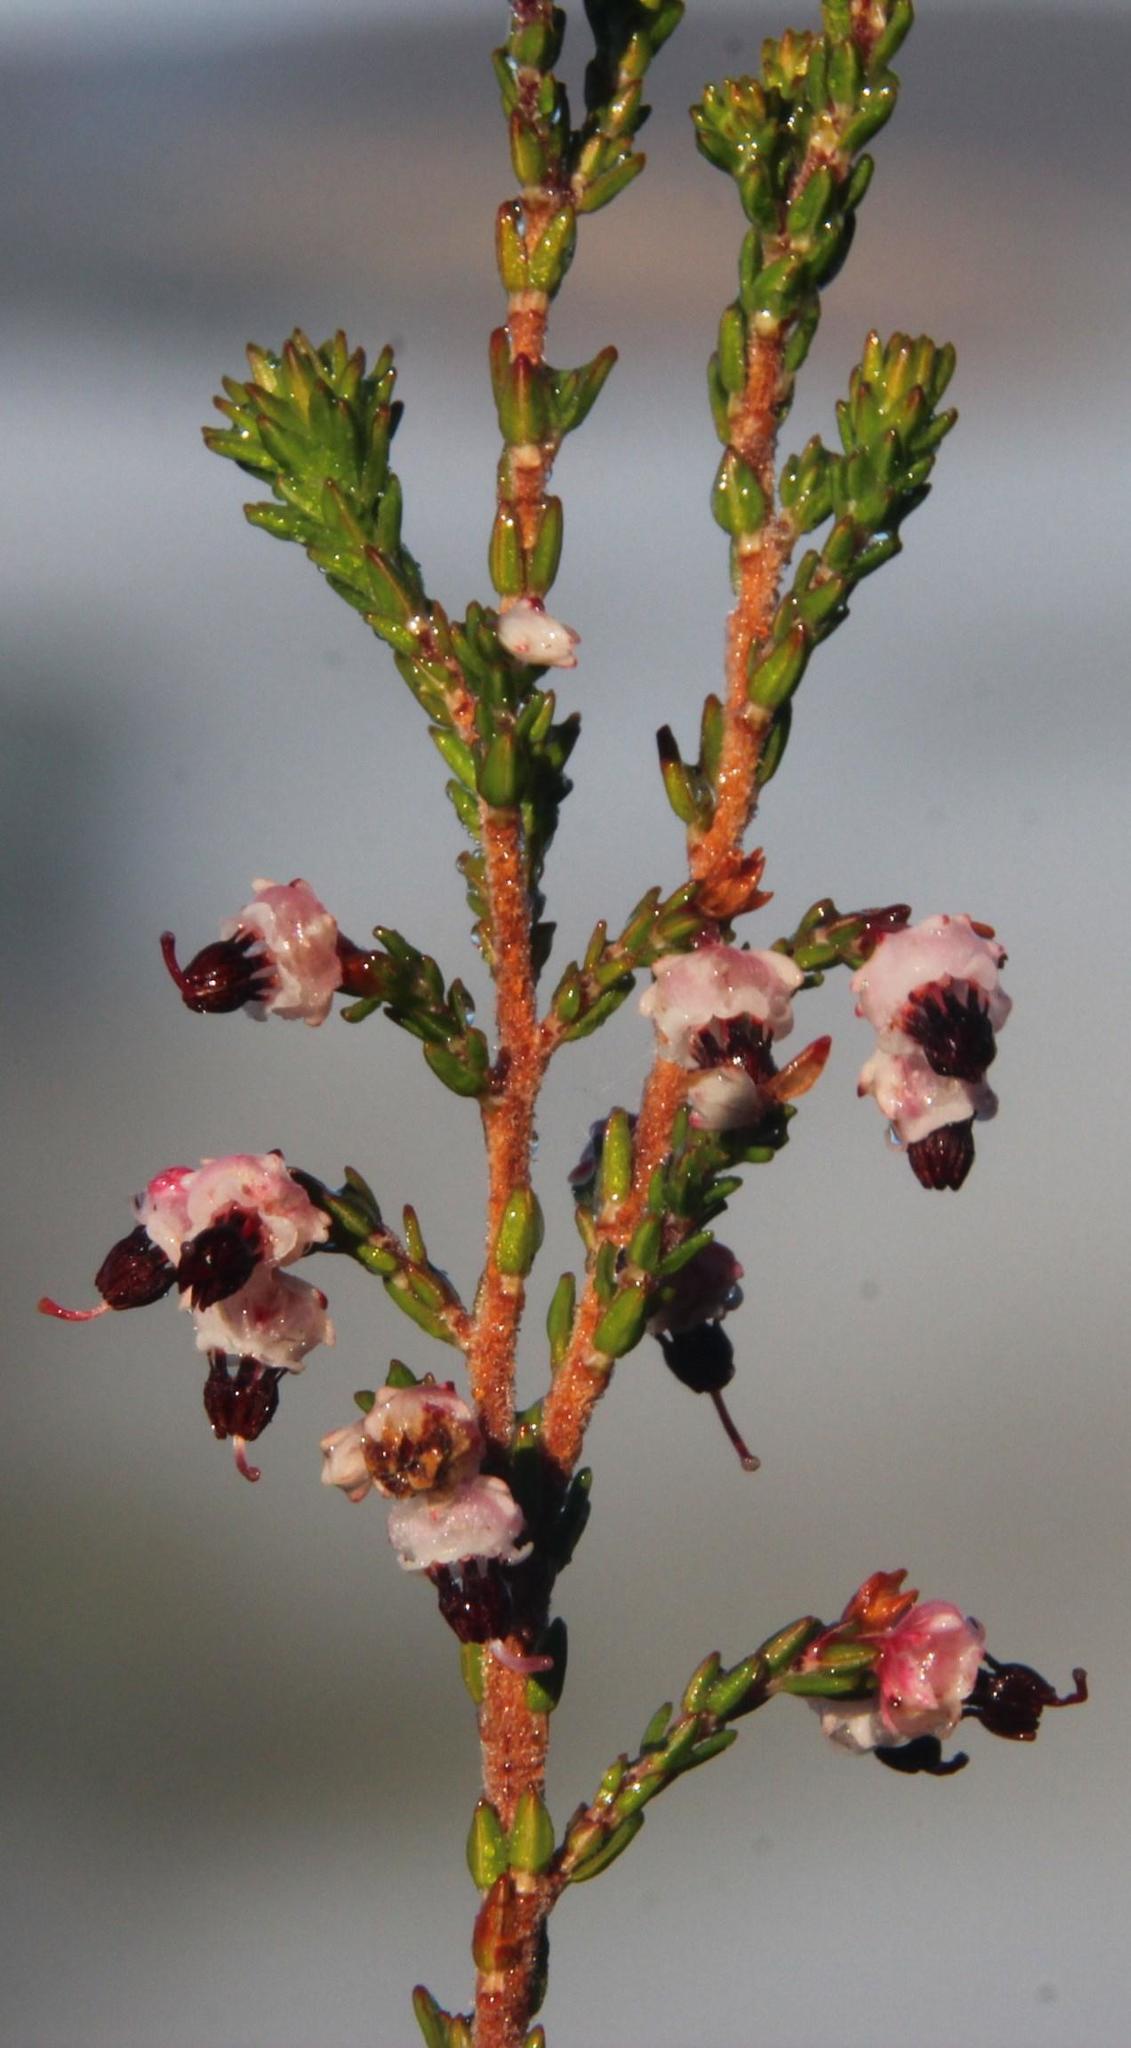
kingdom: Plantae
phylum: Tracheophyta
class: Magnoliopsida
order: Ericales
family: Ericaceae
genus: Erica
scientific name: Erica triceps
